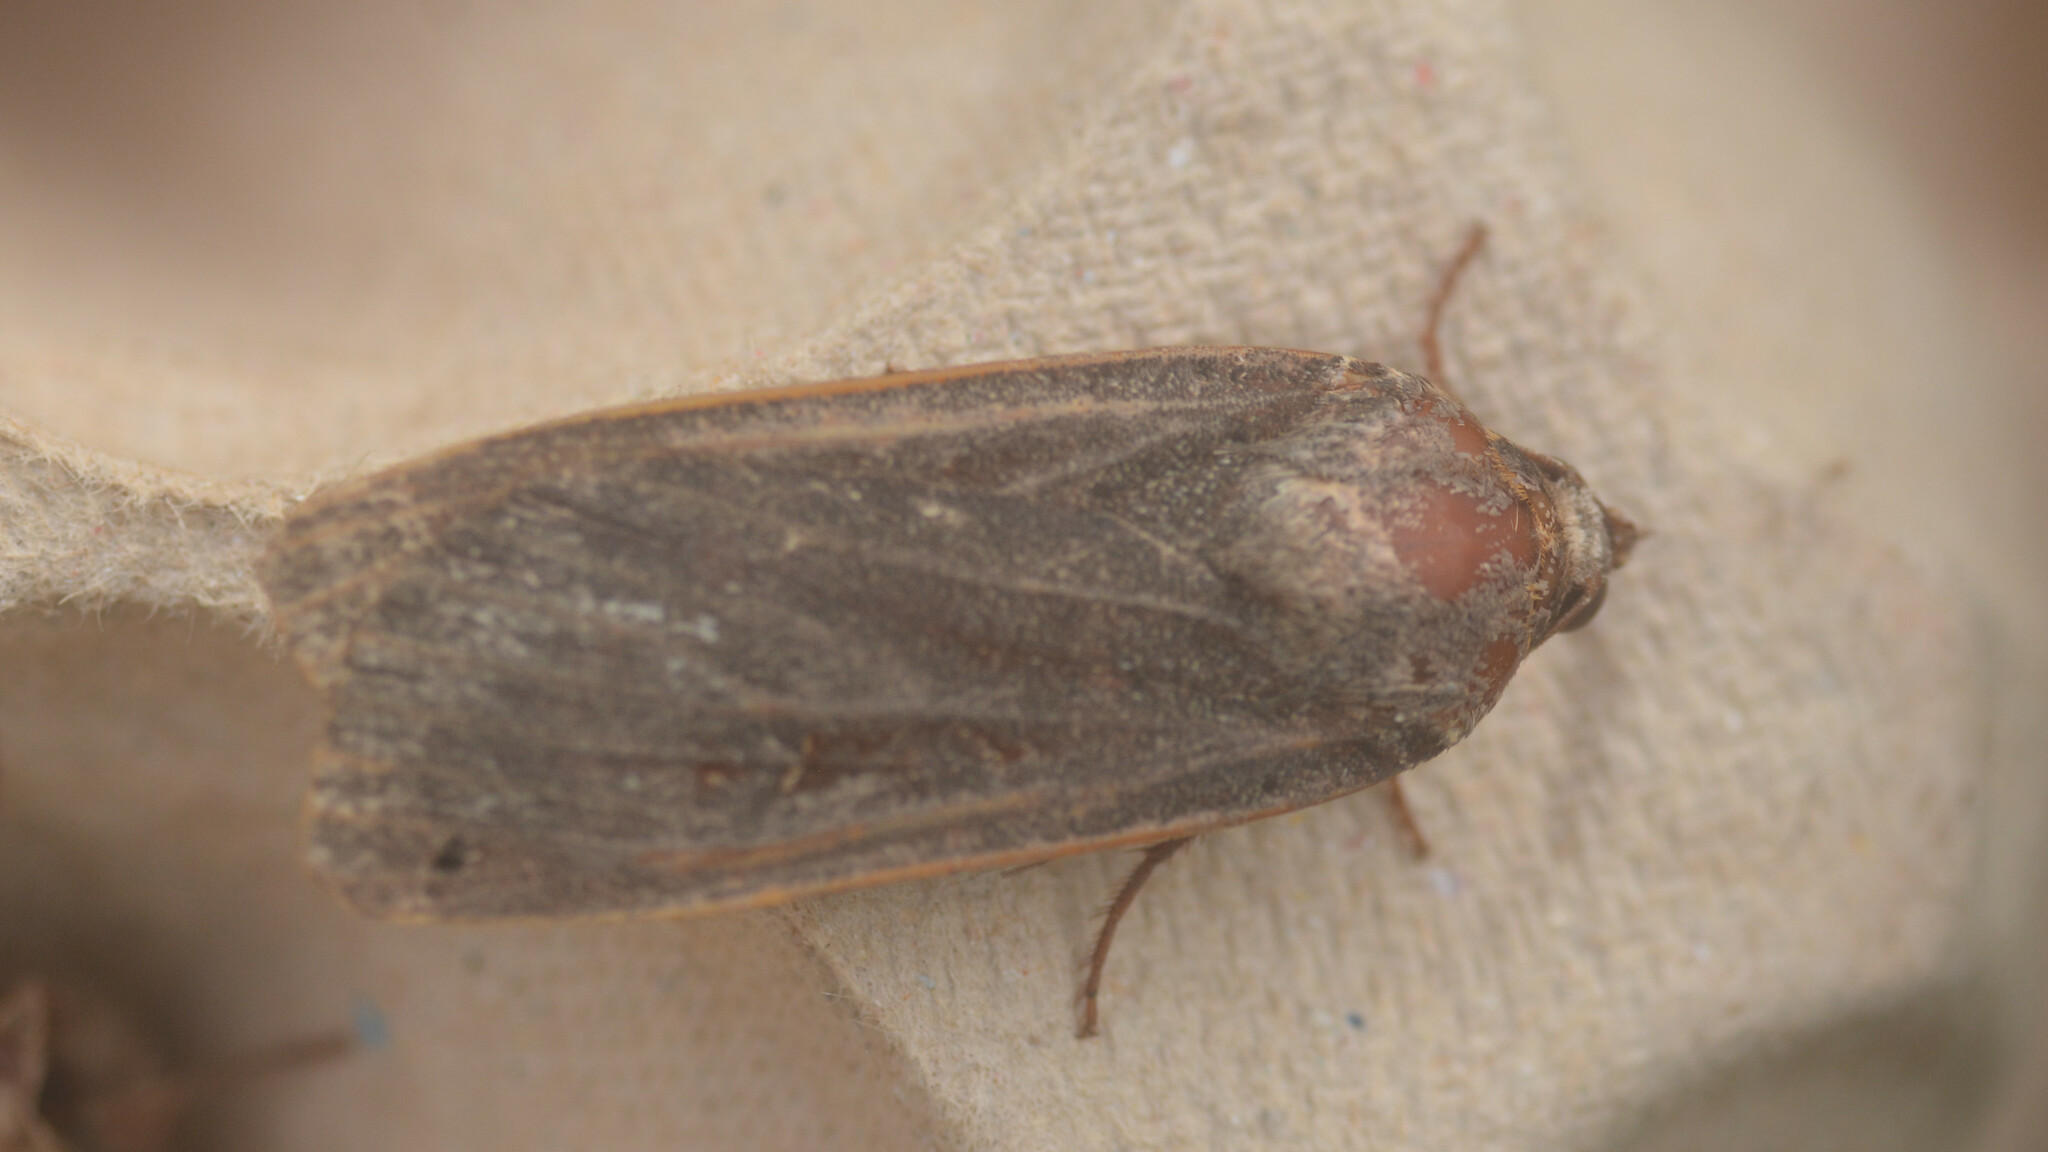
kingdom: Animalia
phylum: Arthropoda
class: Insecta
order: Lepidoptera
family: Noctuidae
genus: Noctua
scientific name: Noctua pronuba
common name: Large yellow underwing
